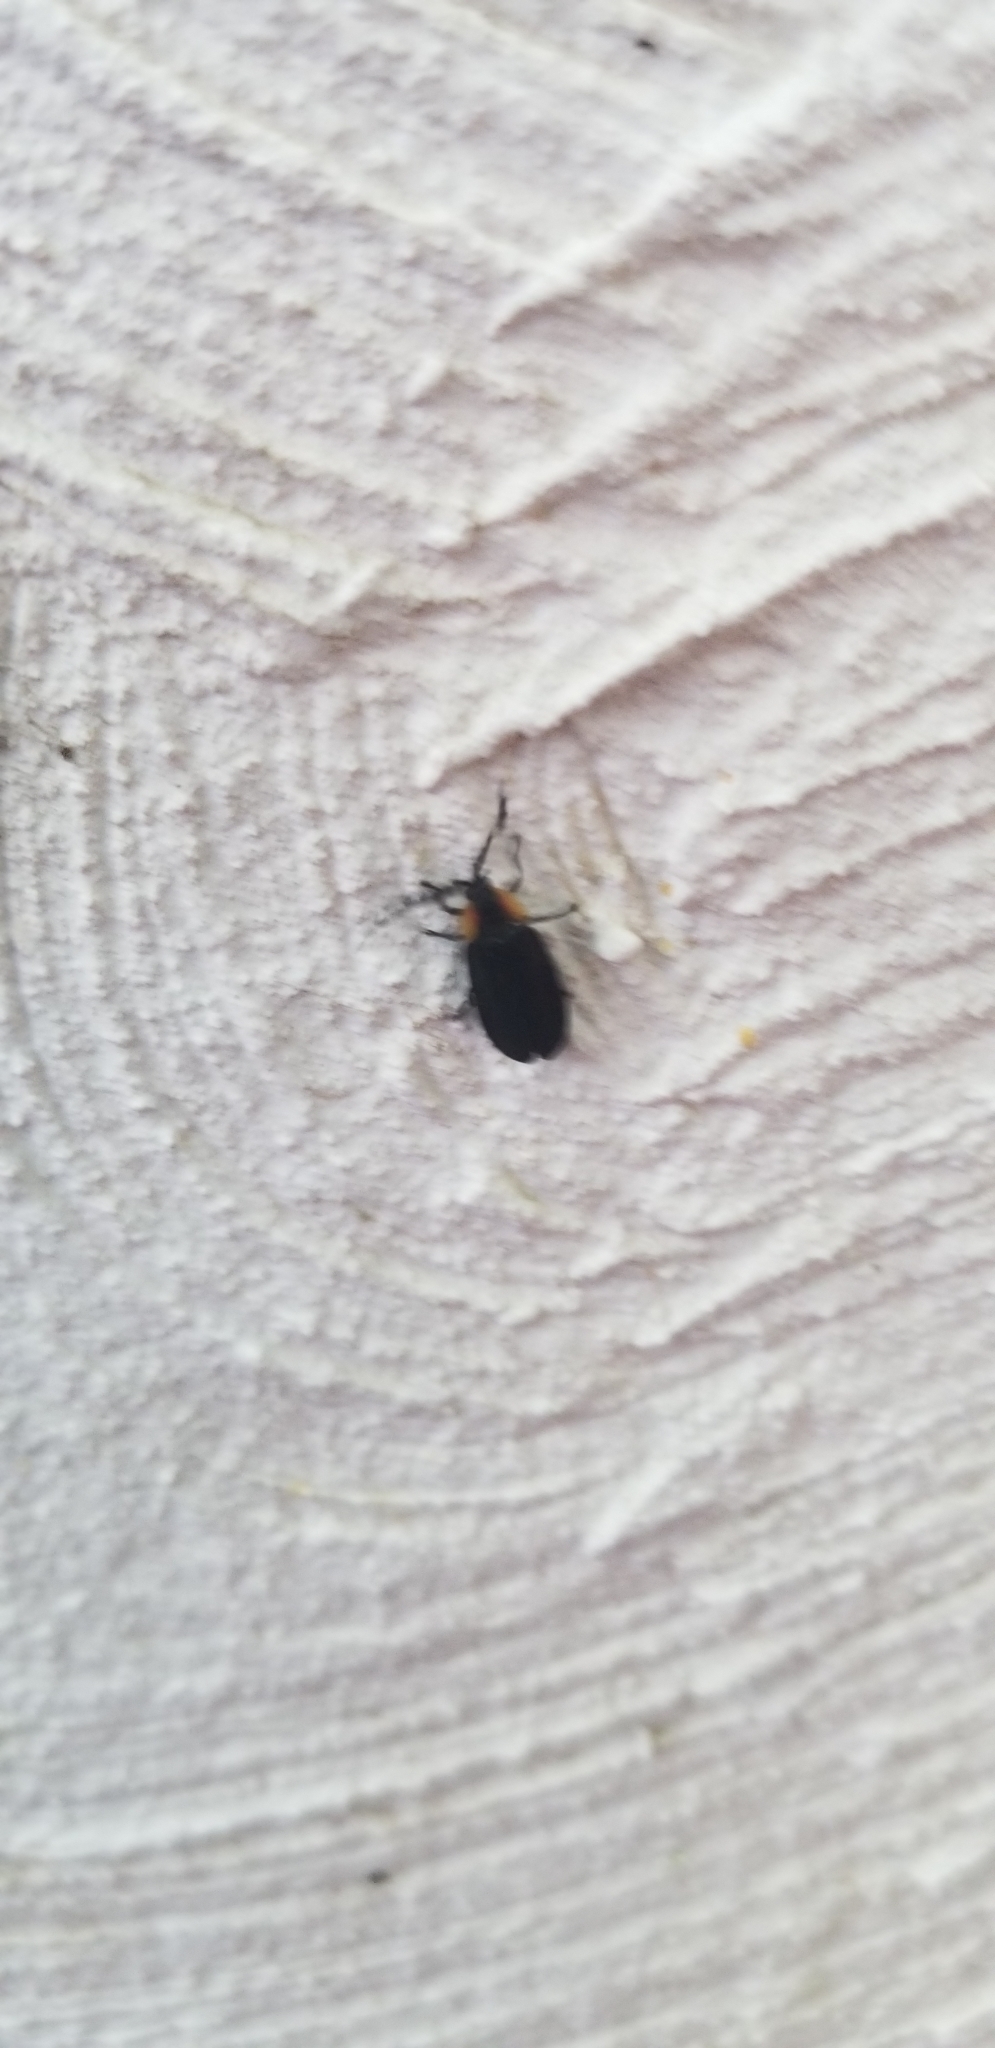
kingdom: Animalia
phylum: Arthropoda
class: Insecta
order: Coleoptera
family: Lampyridae
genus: Lucidota
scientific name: Lucidota atra
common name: Black firefly
